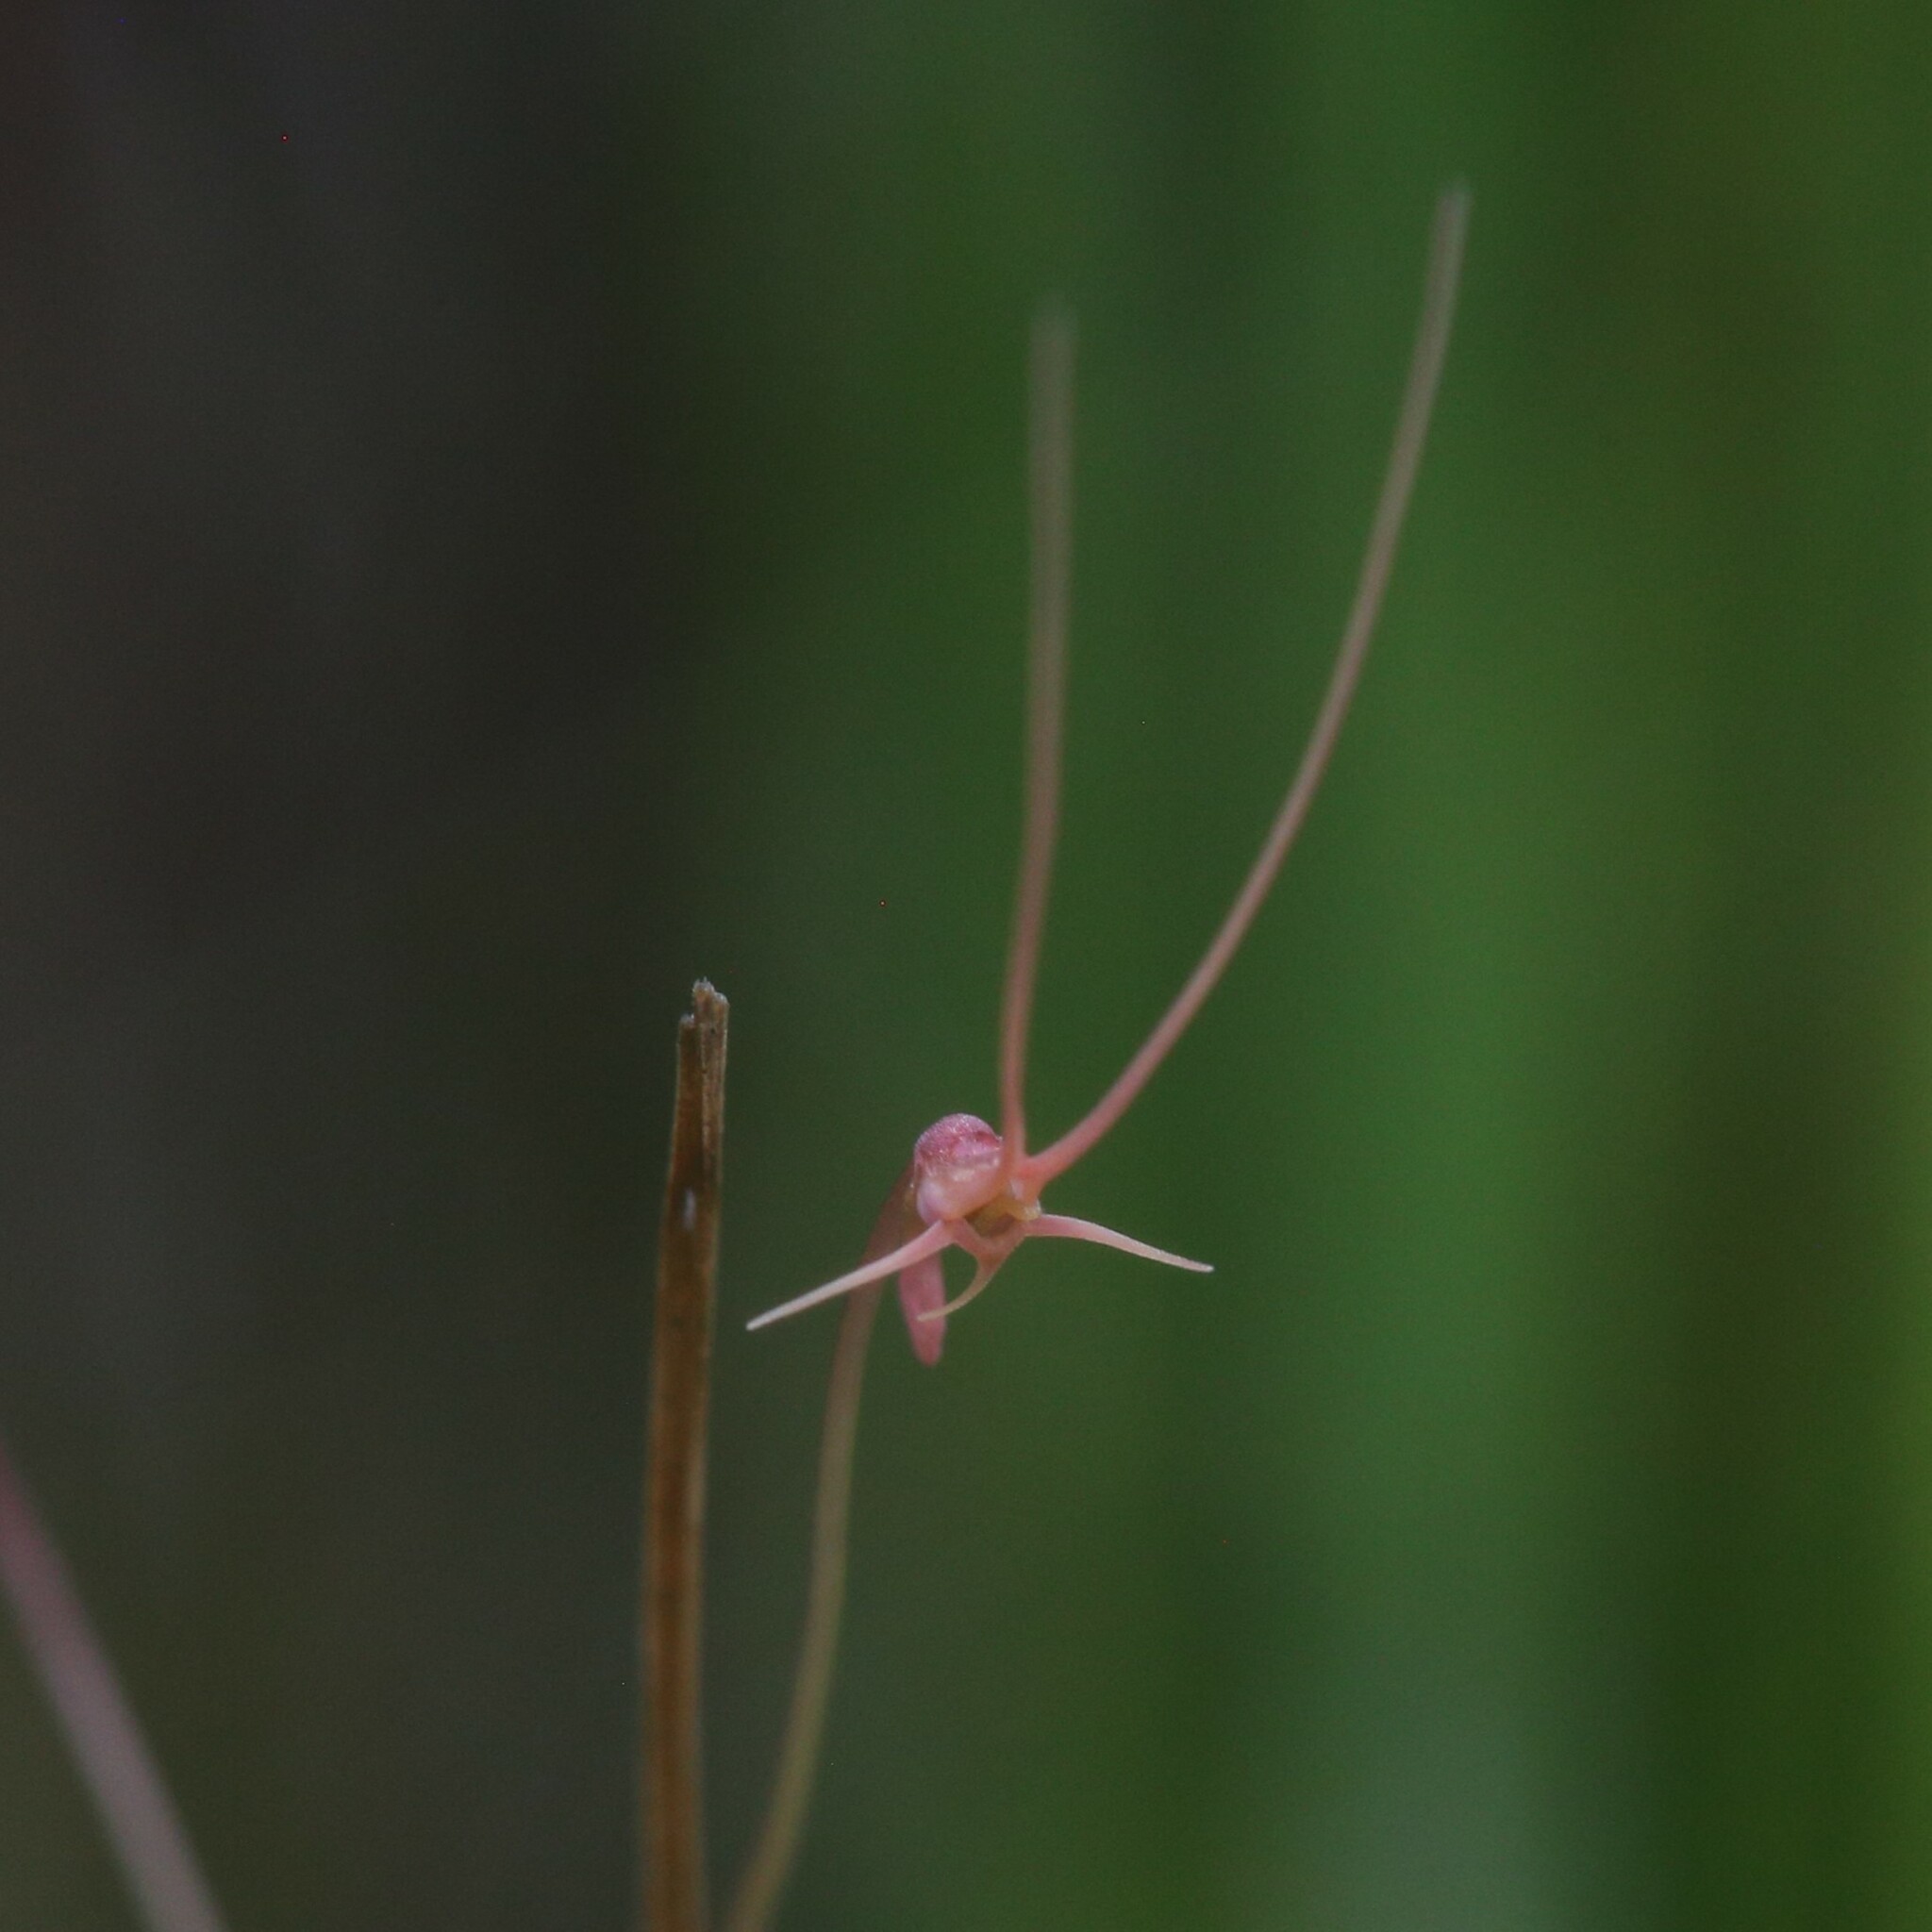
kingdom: Plantae
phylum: Tracheophyta
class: Magnoliopsida
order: Lamiales
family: Lentibulariaceae
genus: Utricularia
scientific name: Utricularia dunlopii
